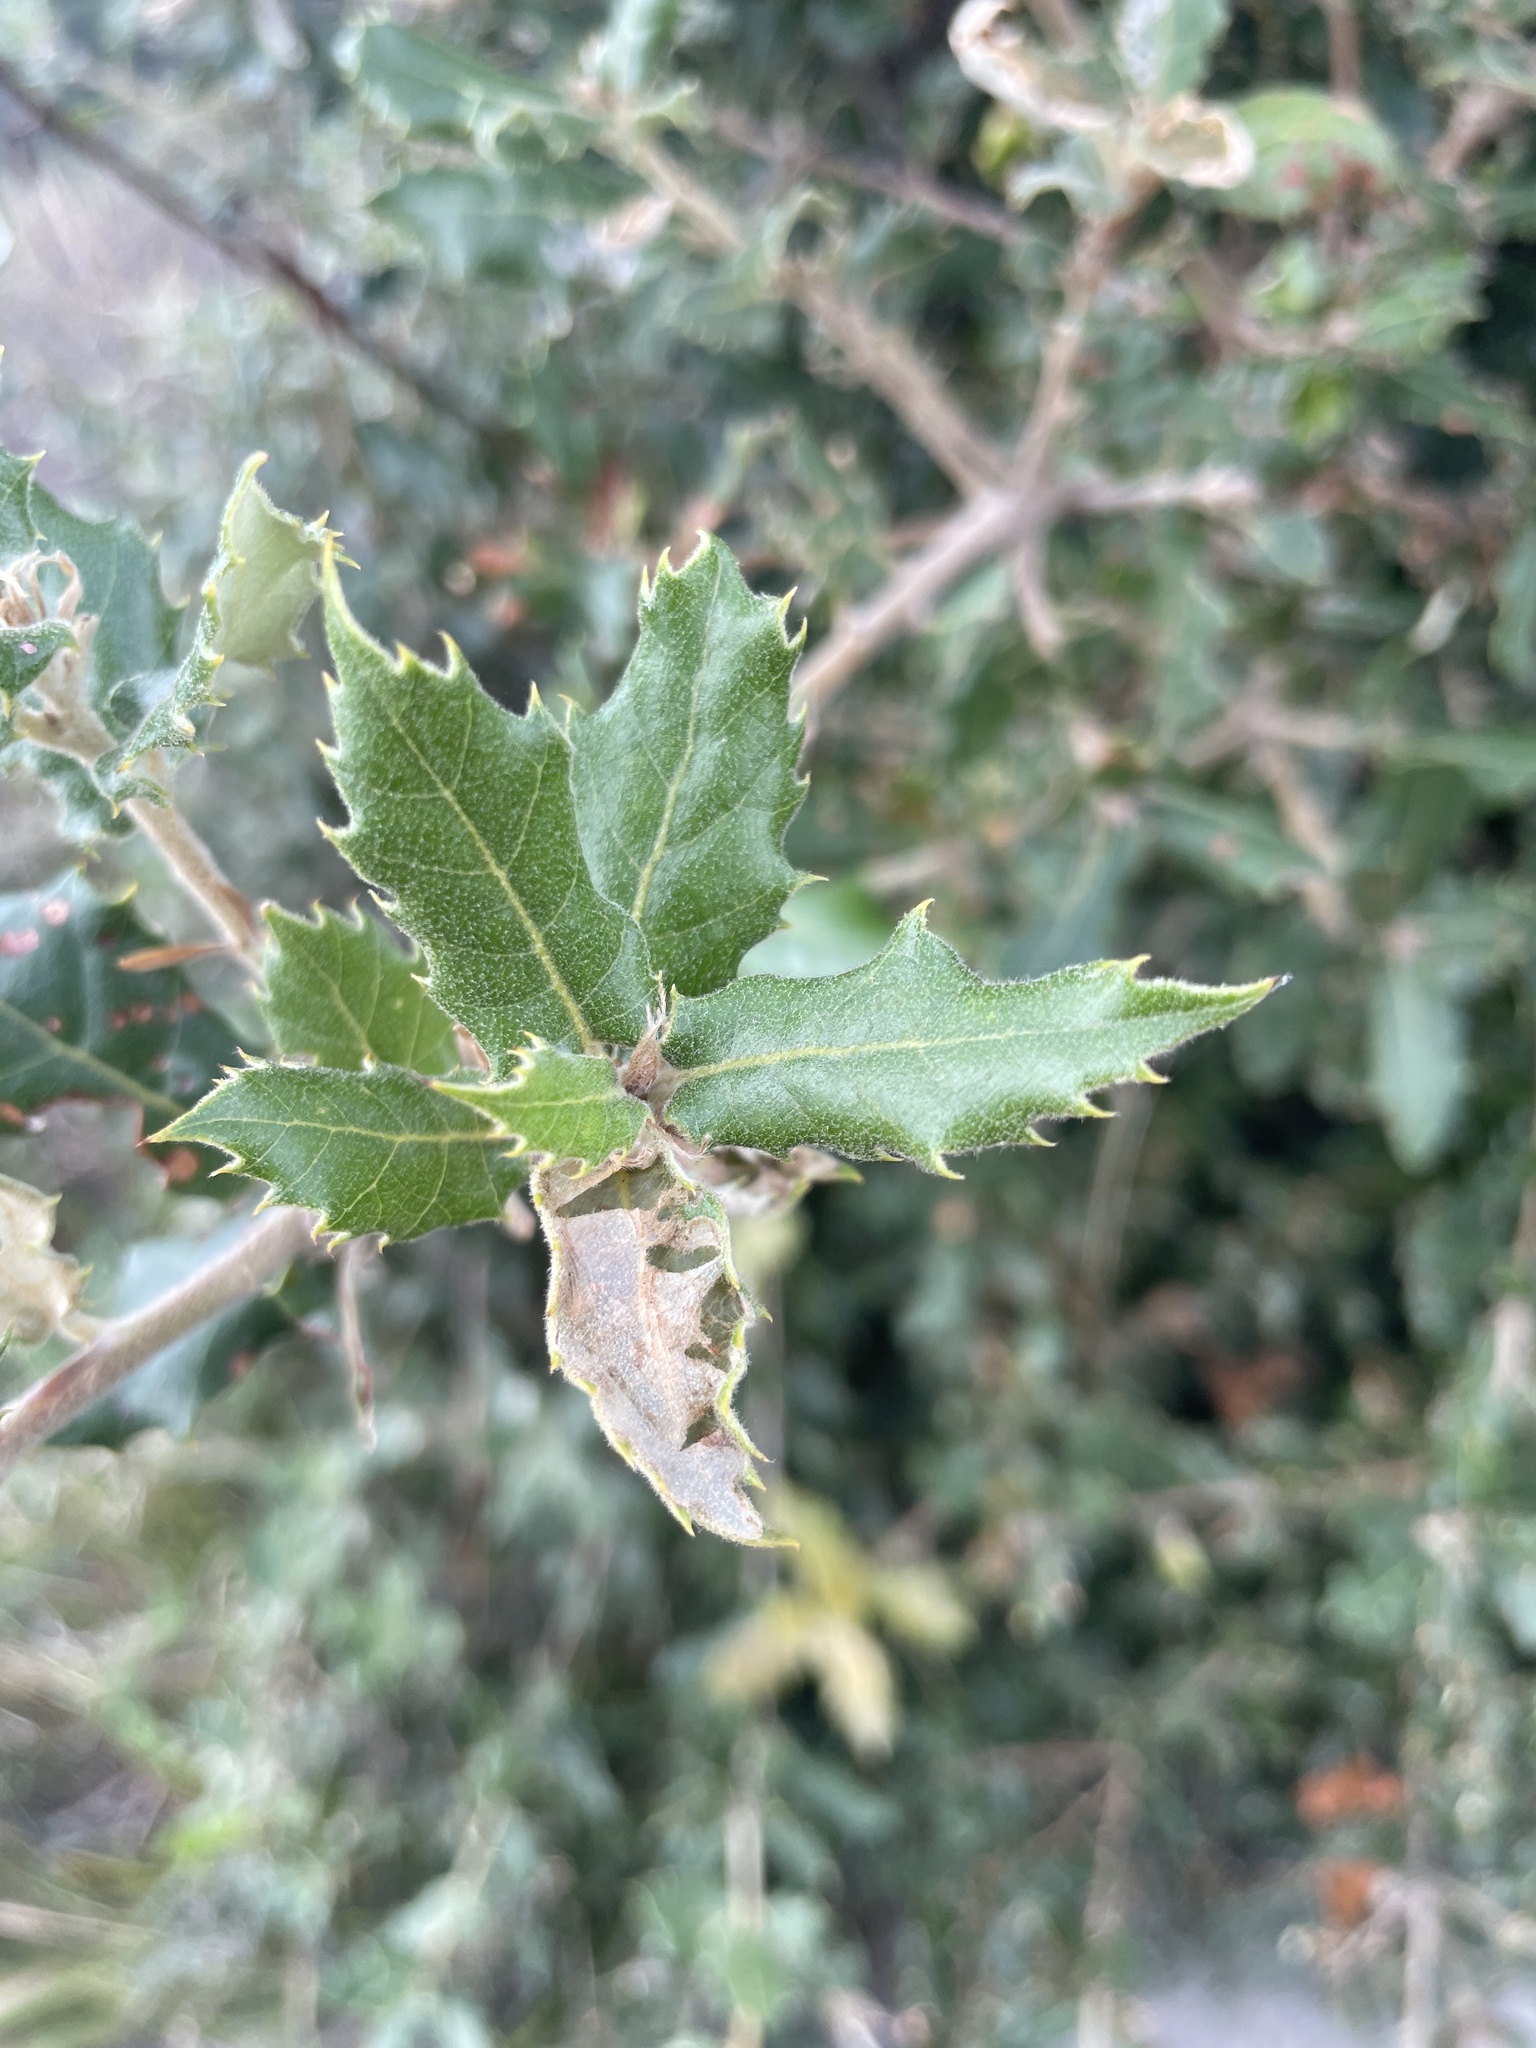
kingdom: Plantae
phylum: Tracheophyta
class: Magnoliopsida
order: Fagales
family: Fagaceae
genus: Quercus
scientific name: Quercus ilex
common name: Evergreen oak
